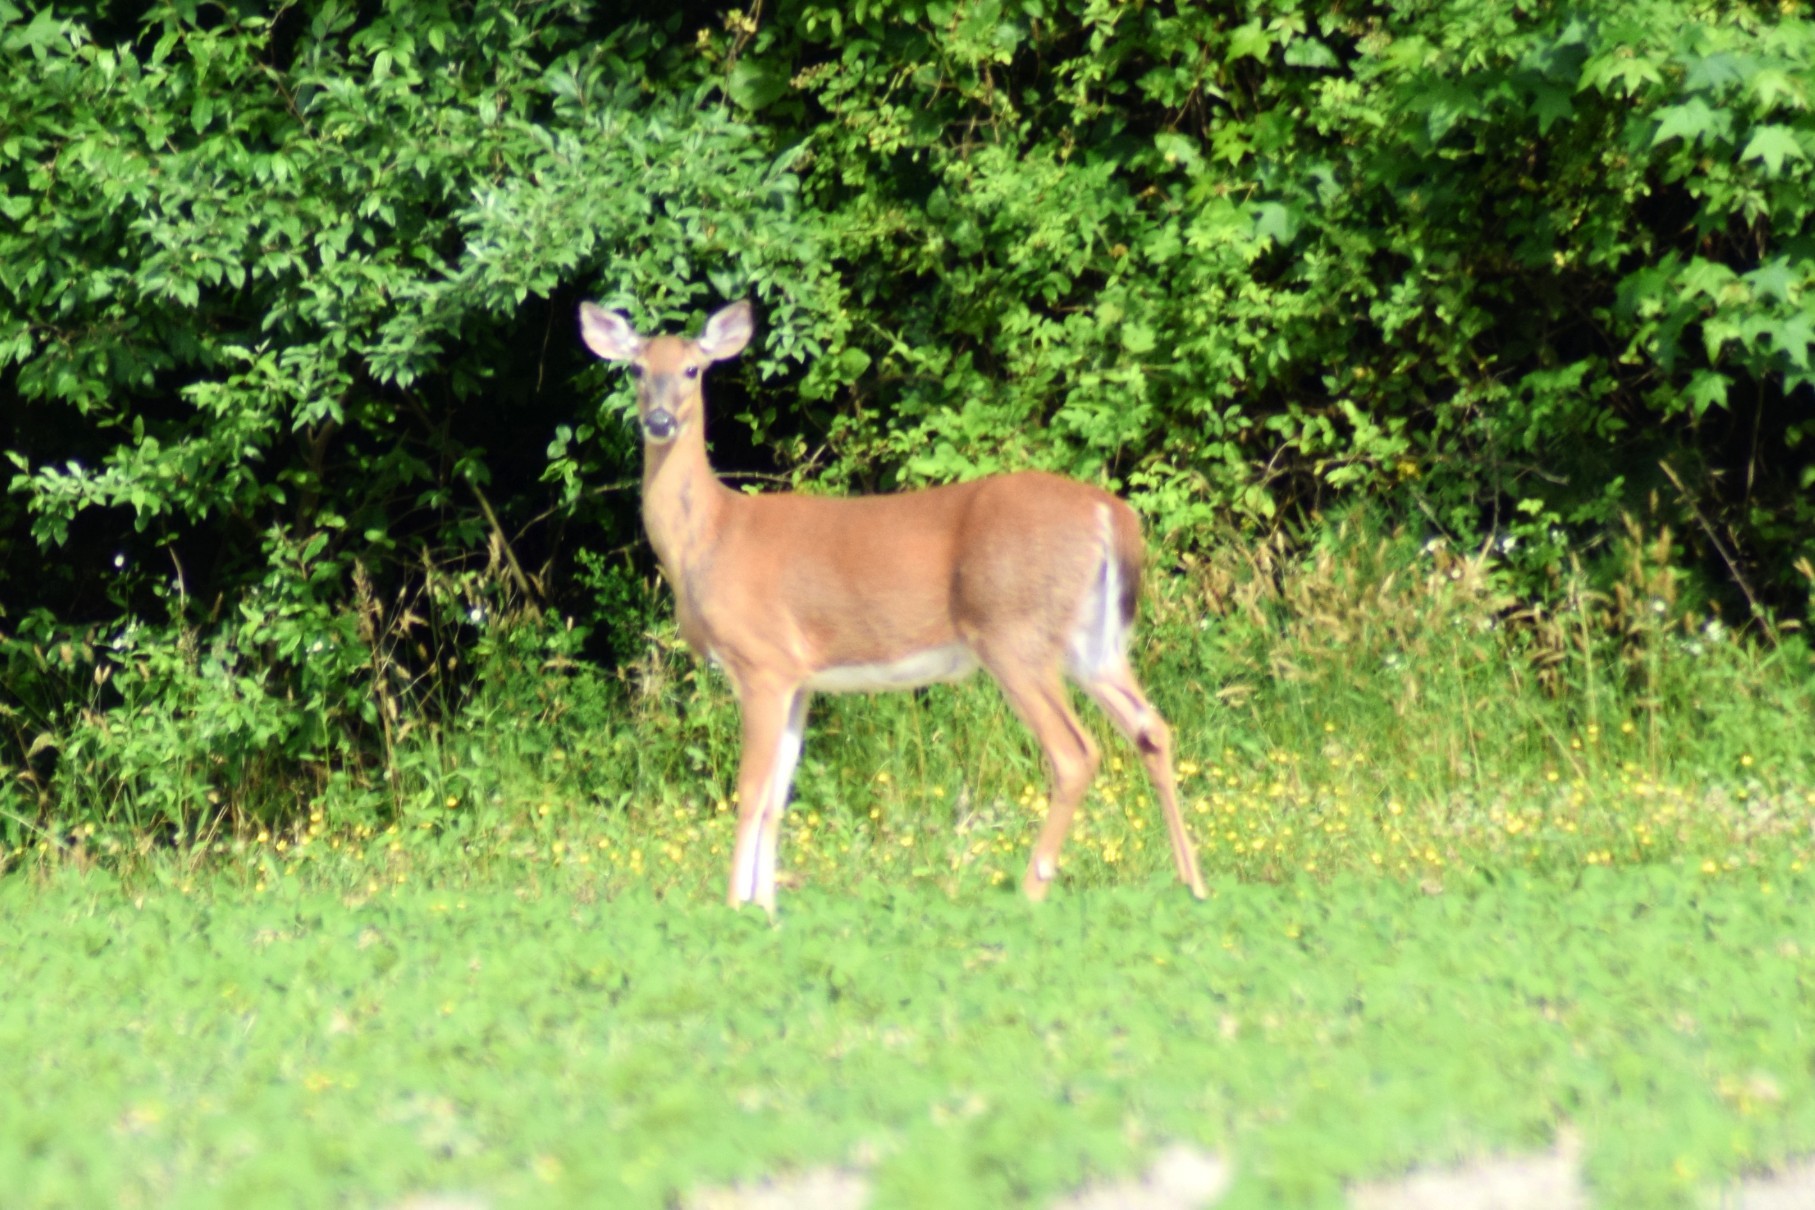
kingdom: Animalia
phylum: Chordata
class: Mammalia
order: Artiodactyla
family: Cervidae
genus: Odocoileus
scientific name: Odocoileus virginianus
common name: White-tailed deer
